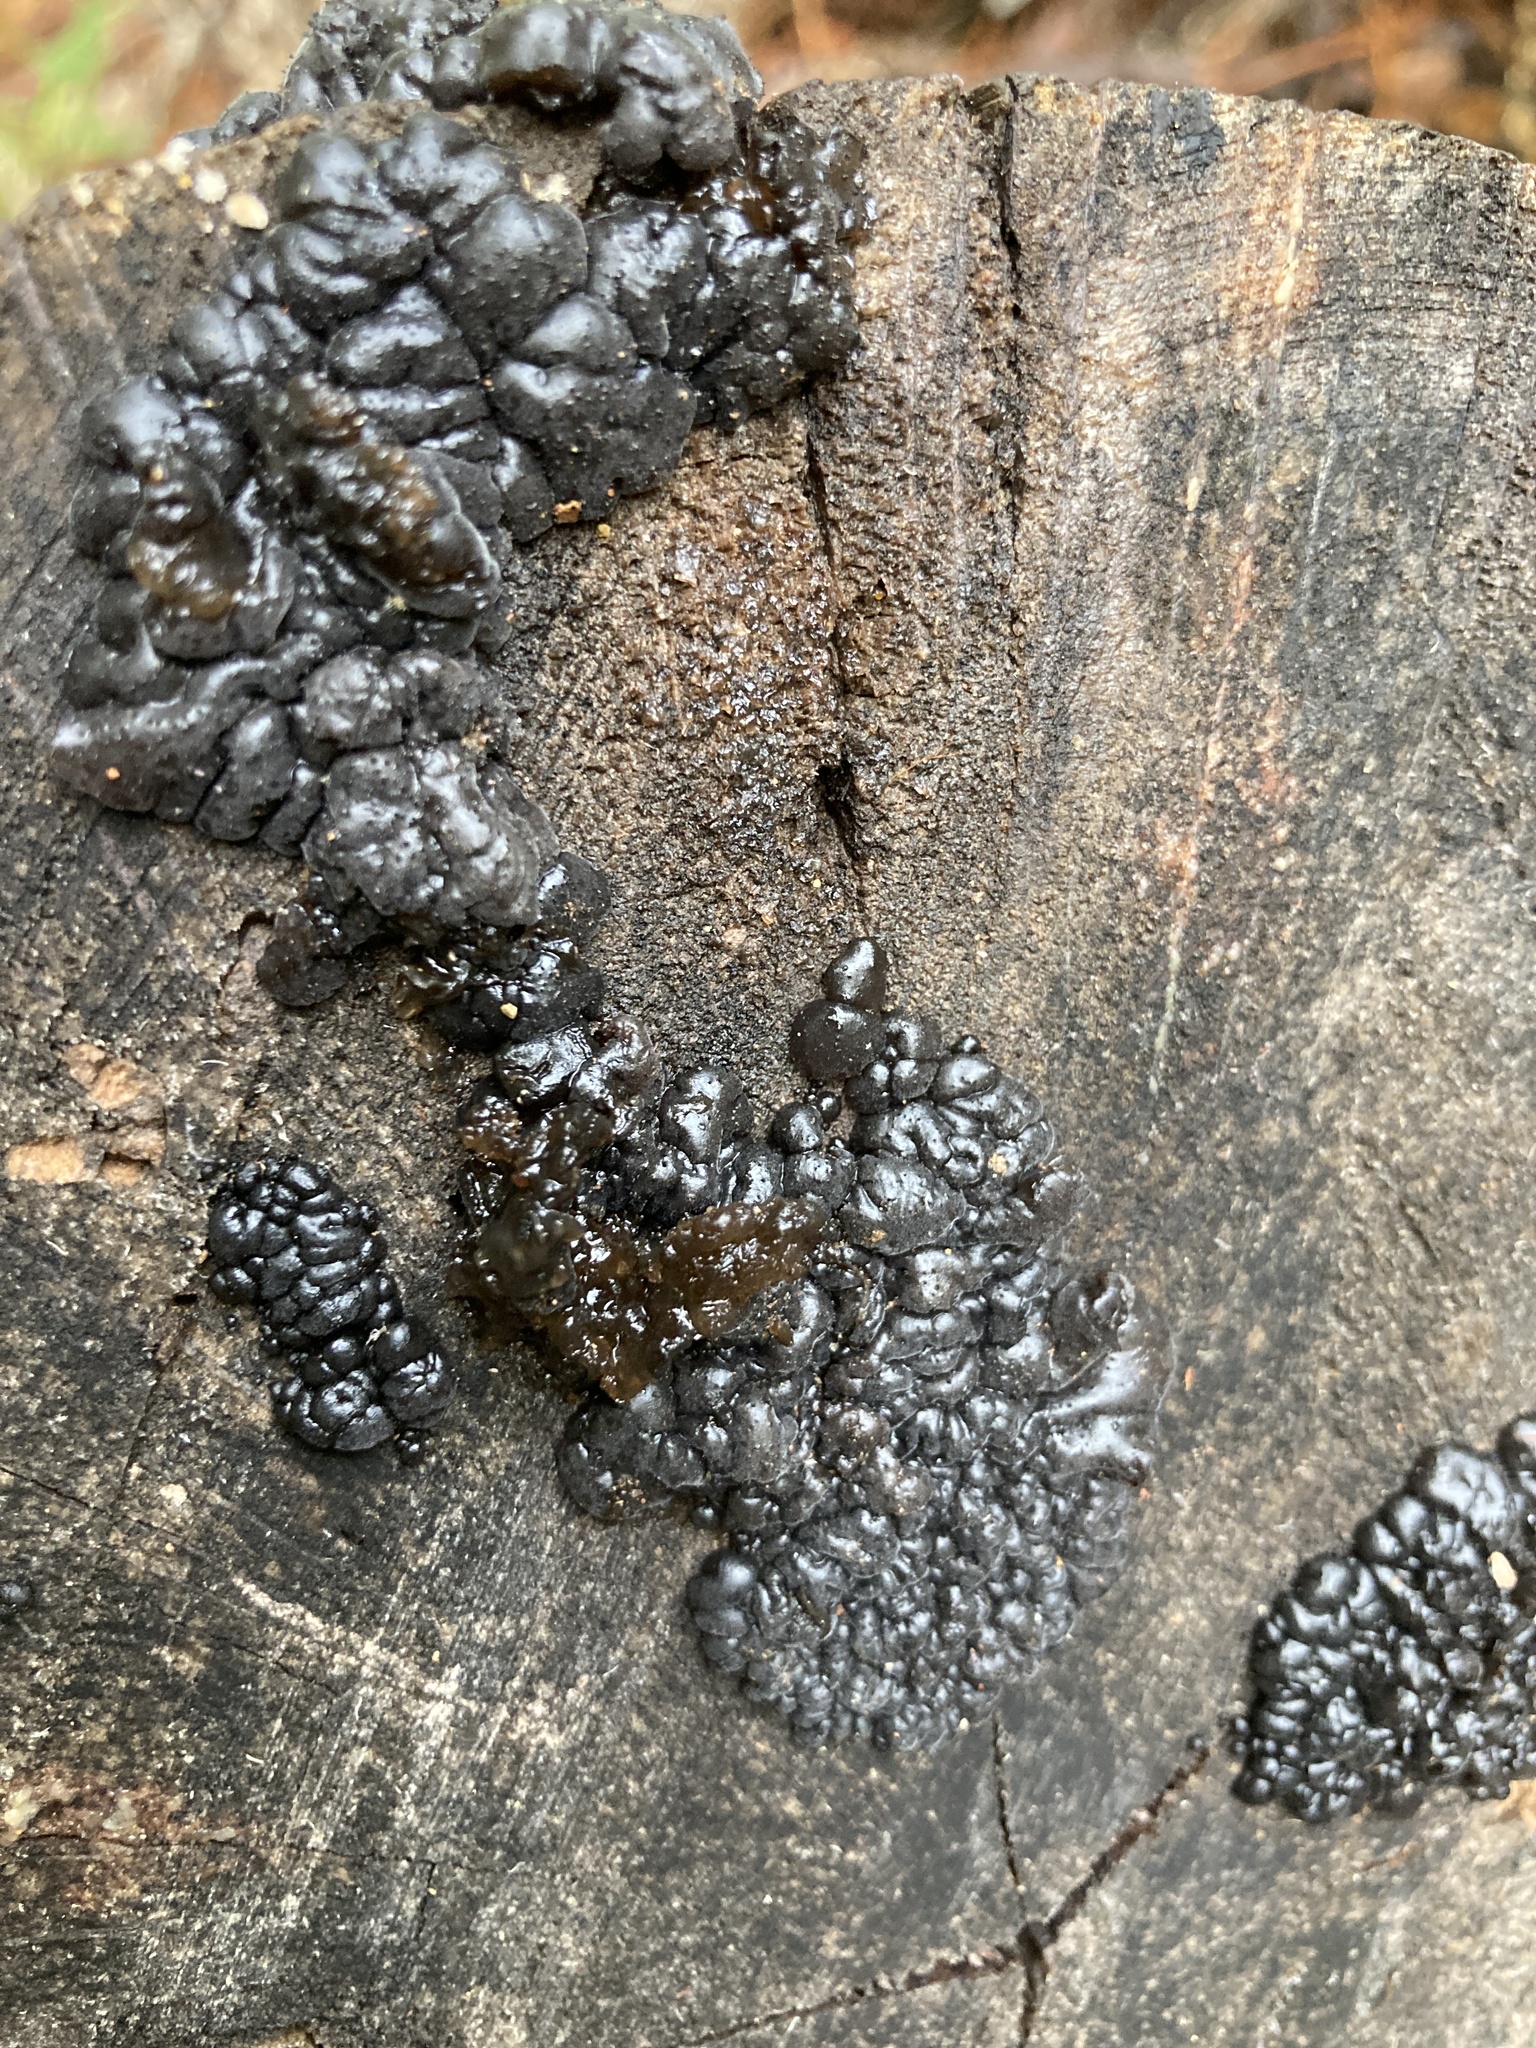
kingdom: Fungi
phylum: Basidiomycota
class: Agaricomycetes
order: Auriculariales
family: Auriculariaceae
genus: Exidia
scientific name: Exidia glandulosa
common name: Witches' butter
